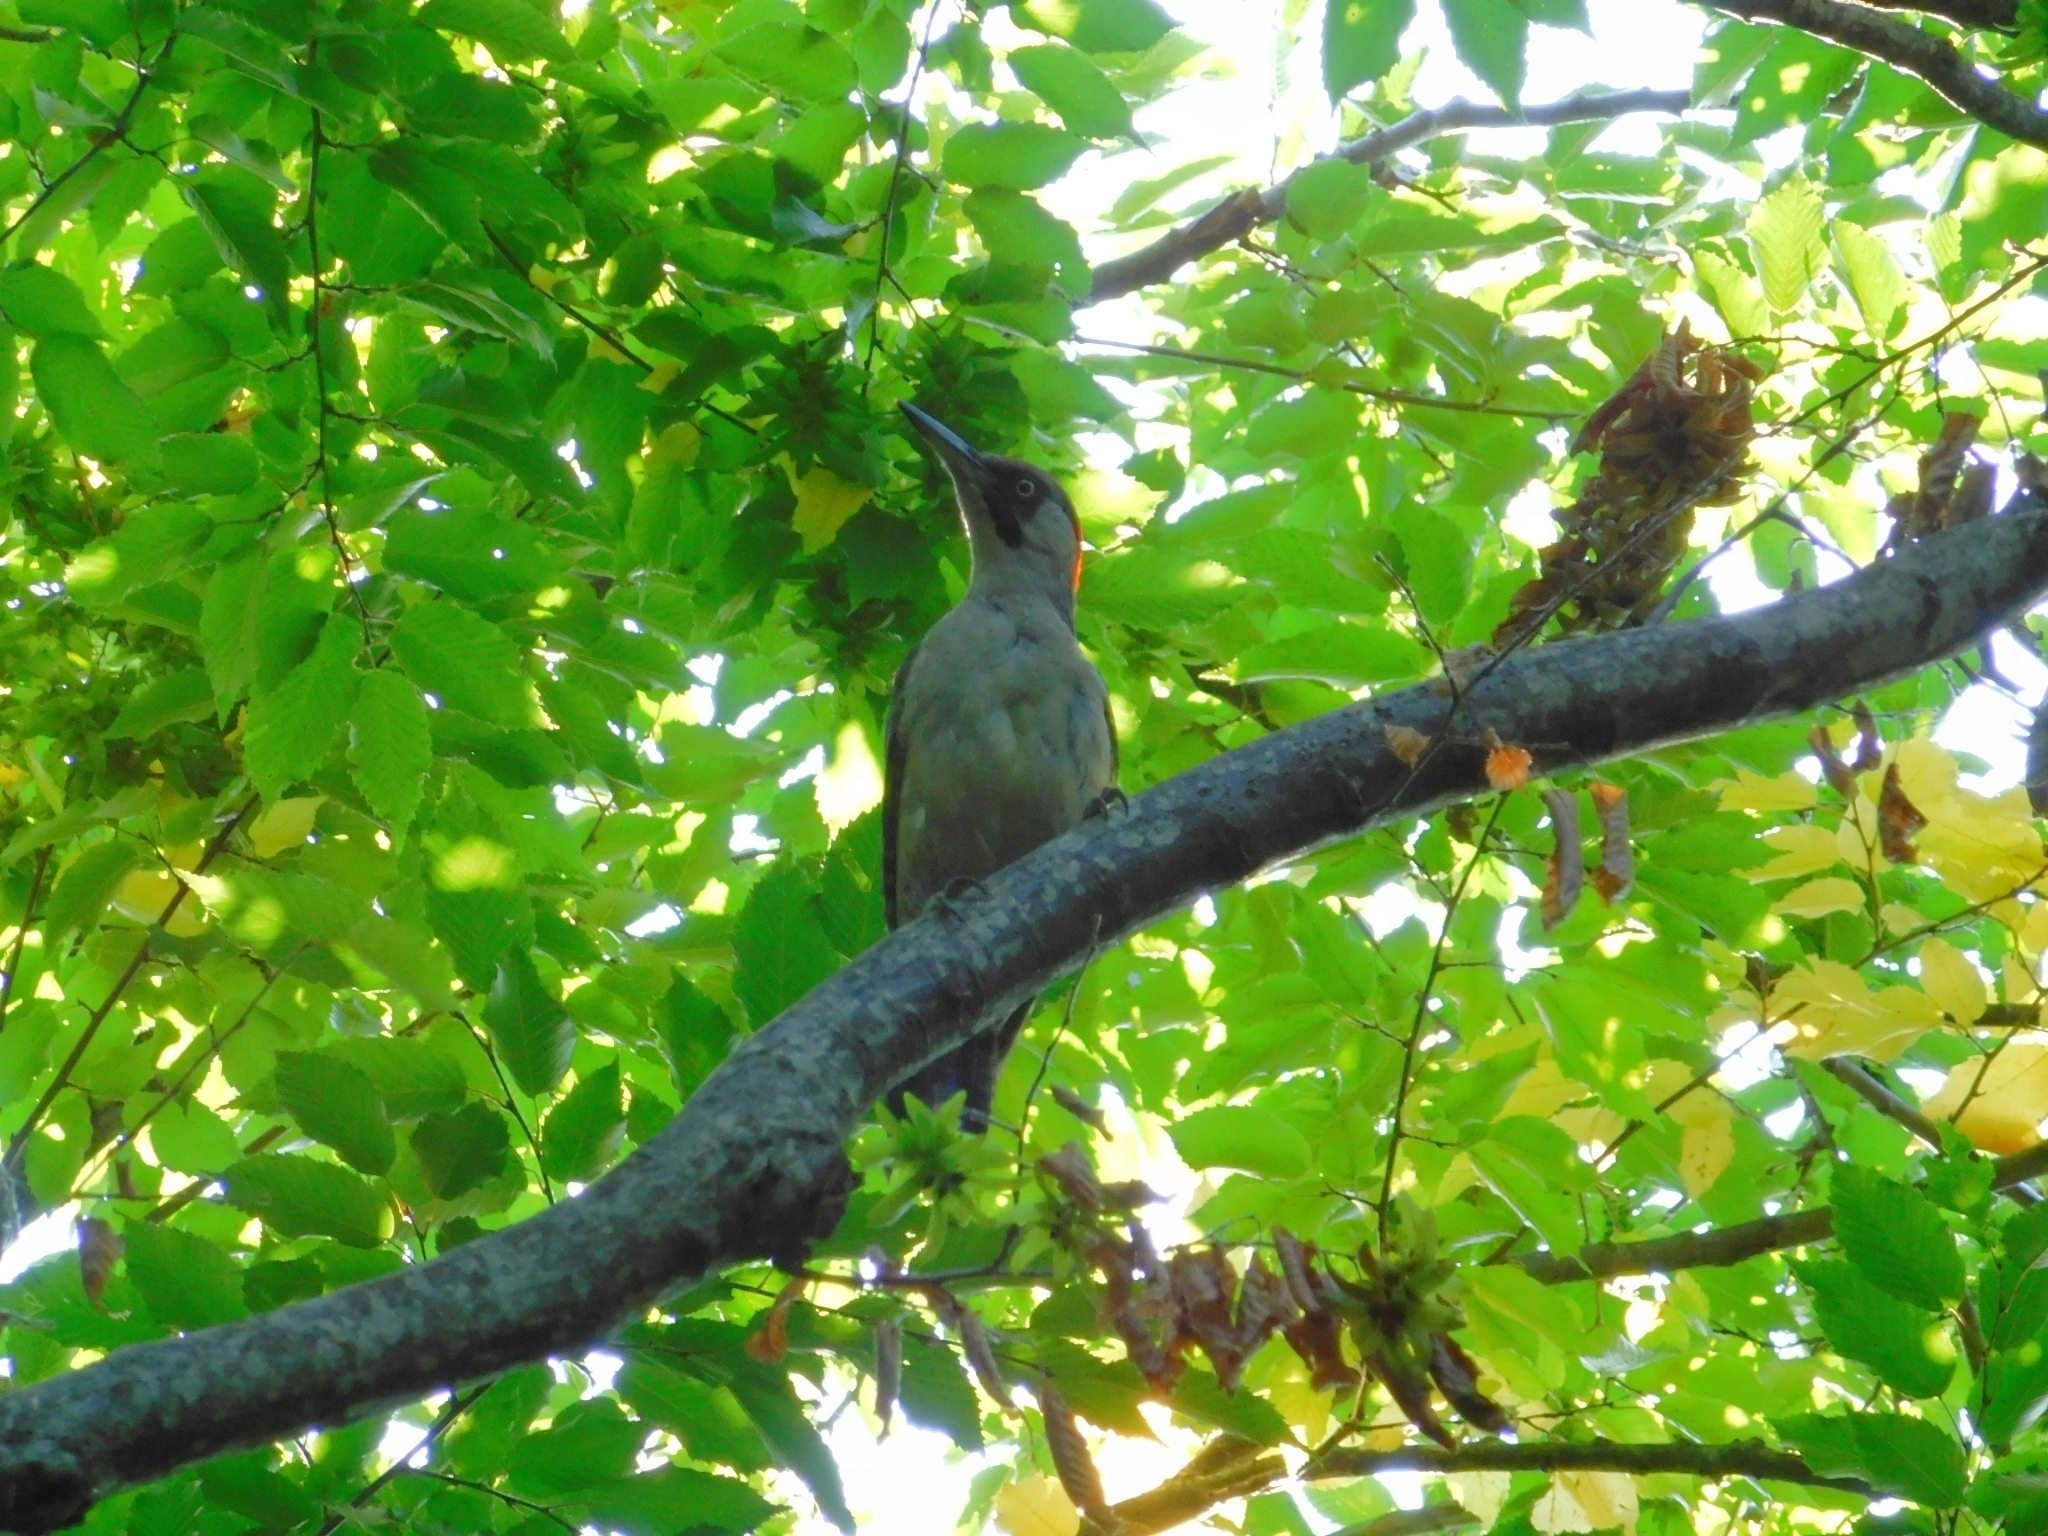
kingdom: Animalia
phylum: Chordata
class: Aves
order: Piciformes
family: Picidae
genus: Picus
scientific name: Picus viridis
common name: European green woodpecker
